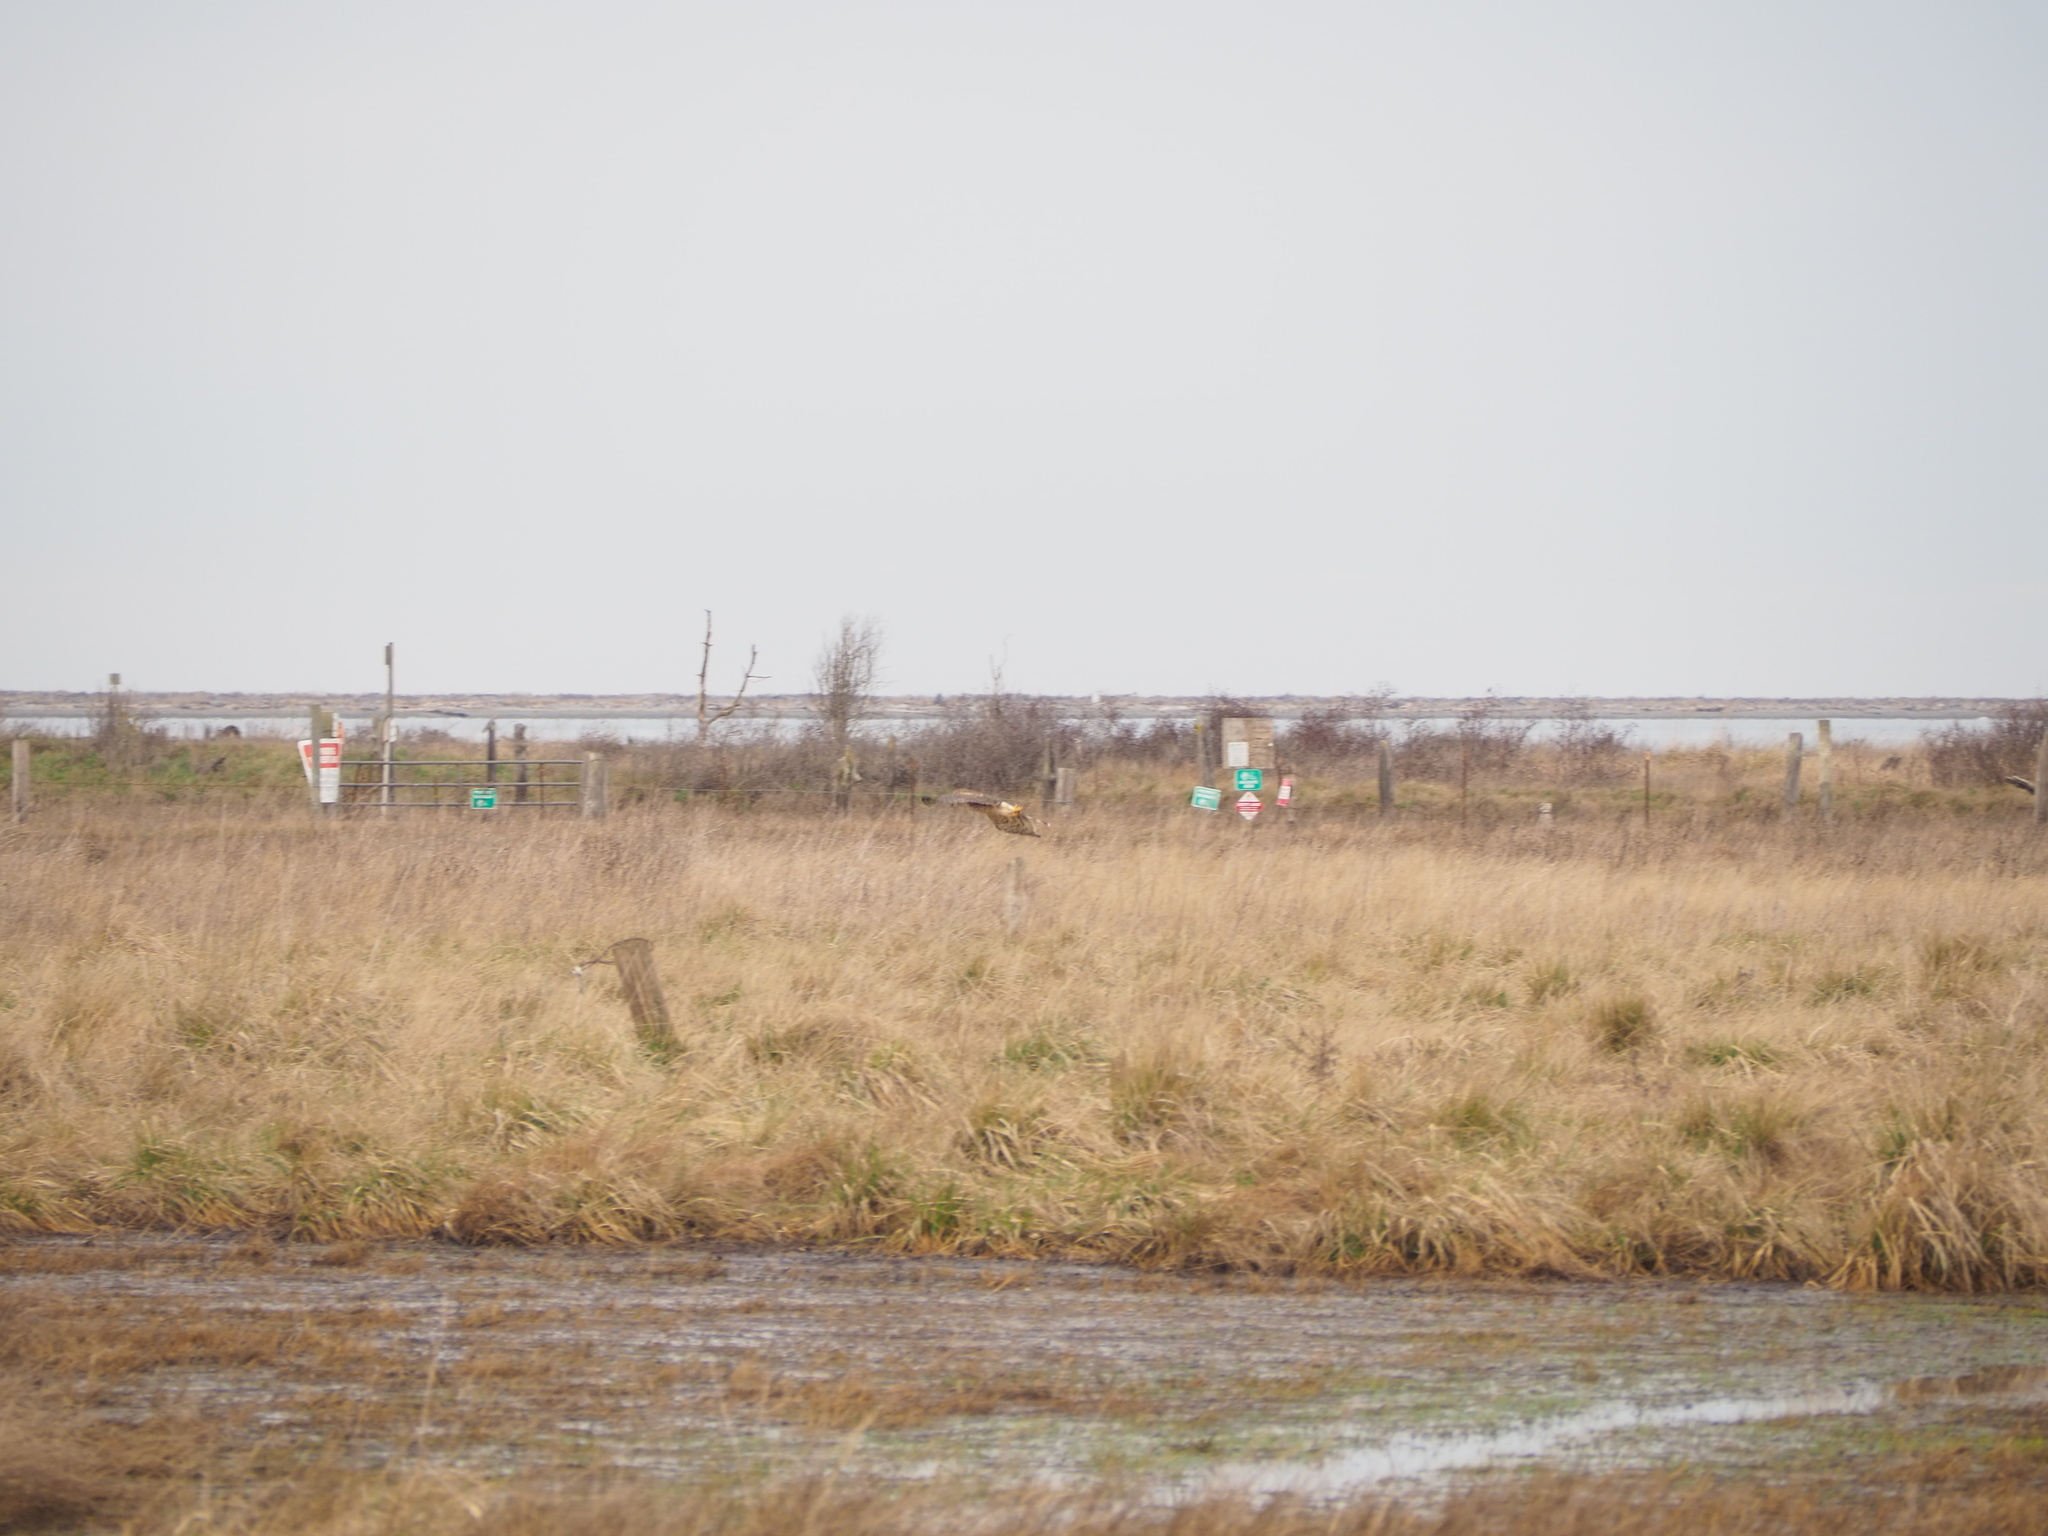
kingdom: Animalia
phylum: Chordata
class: Aves
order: Accipitriformes
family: Accipitridae
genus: Circus
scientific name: Circus cyaneus
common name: Hen harrier
